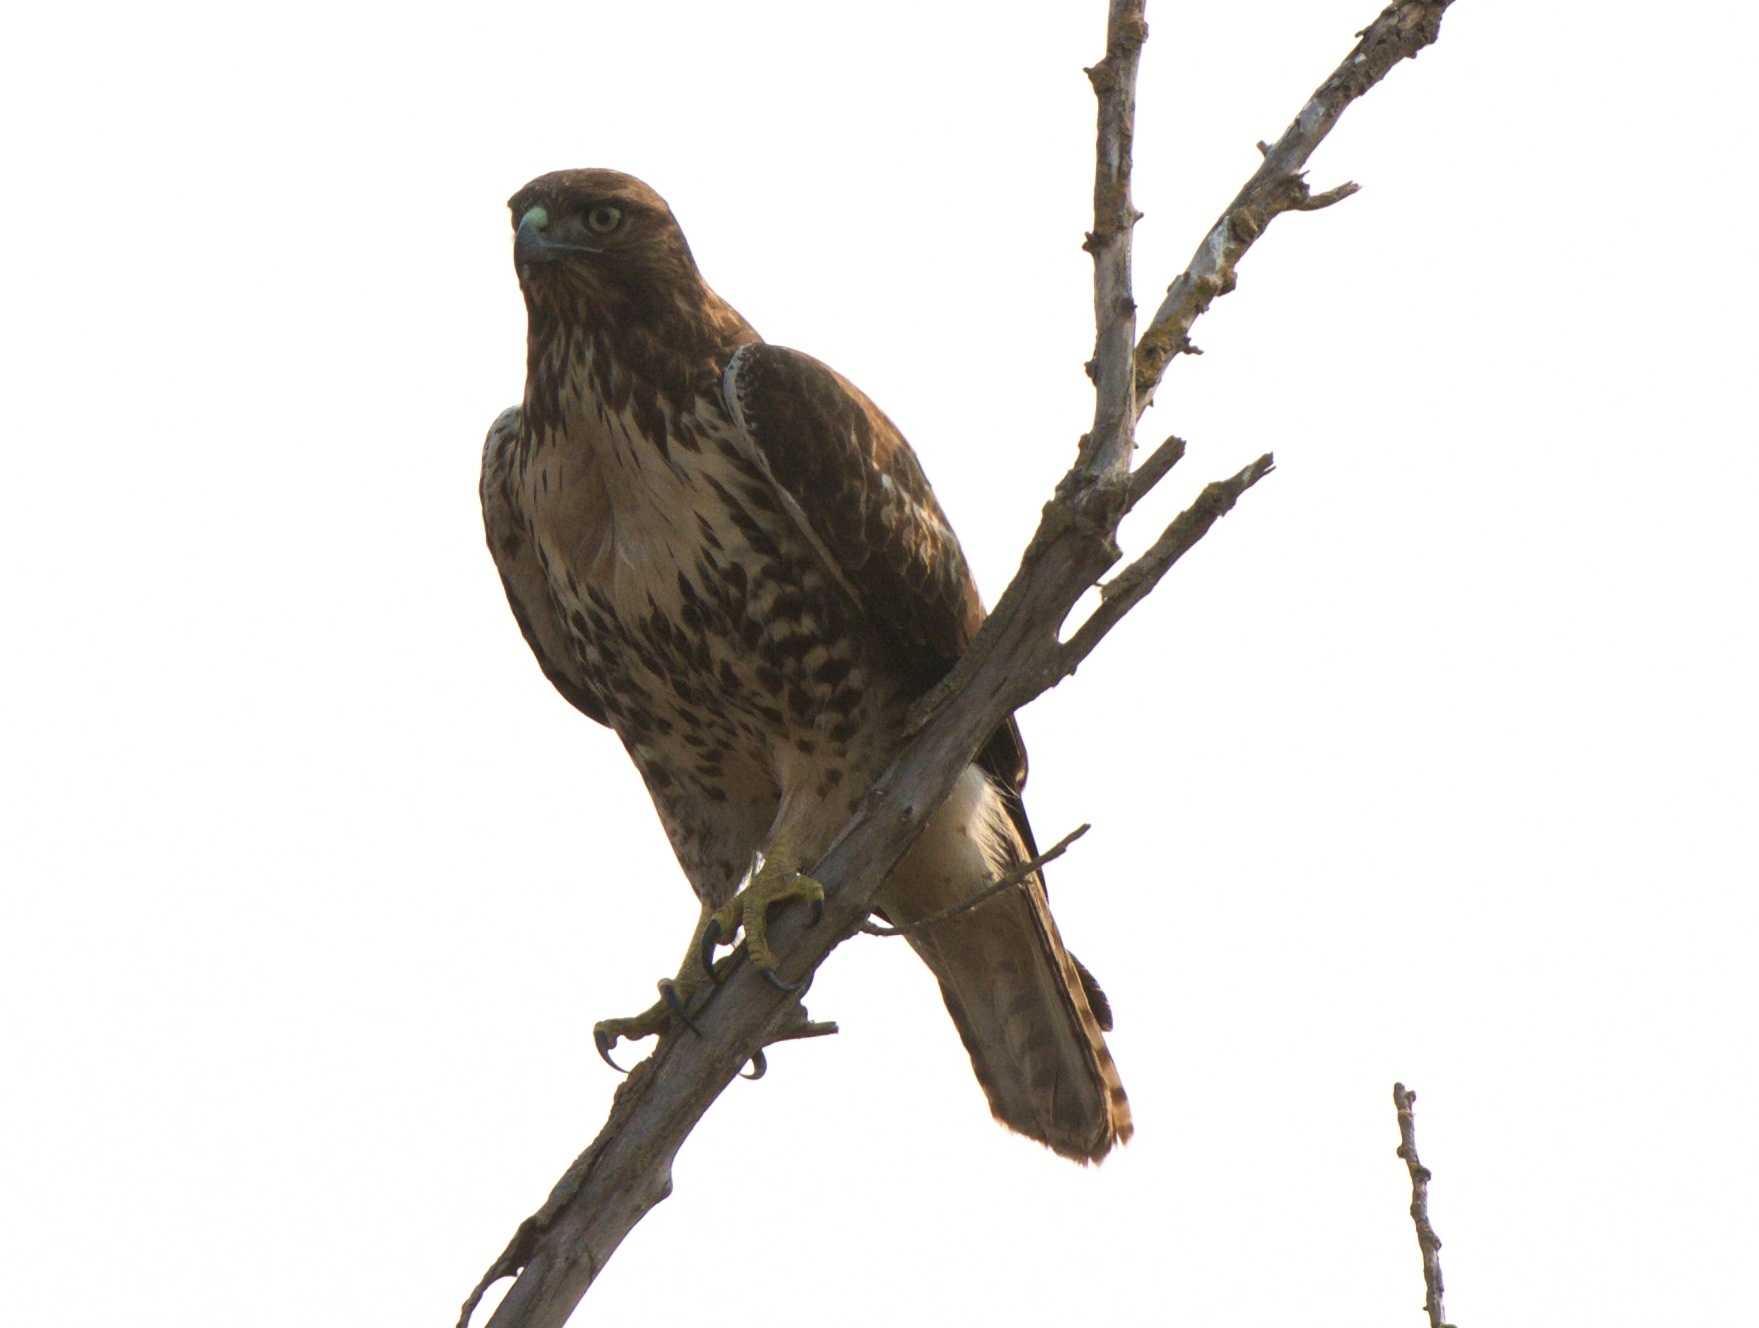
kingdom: Animalia
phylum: Chordata
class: Aves
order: Accipitriformes
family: Accipitridae
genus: Buteo
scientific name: Buteo jamaicensis
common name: Red-tailed hawk
